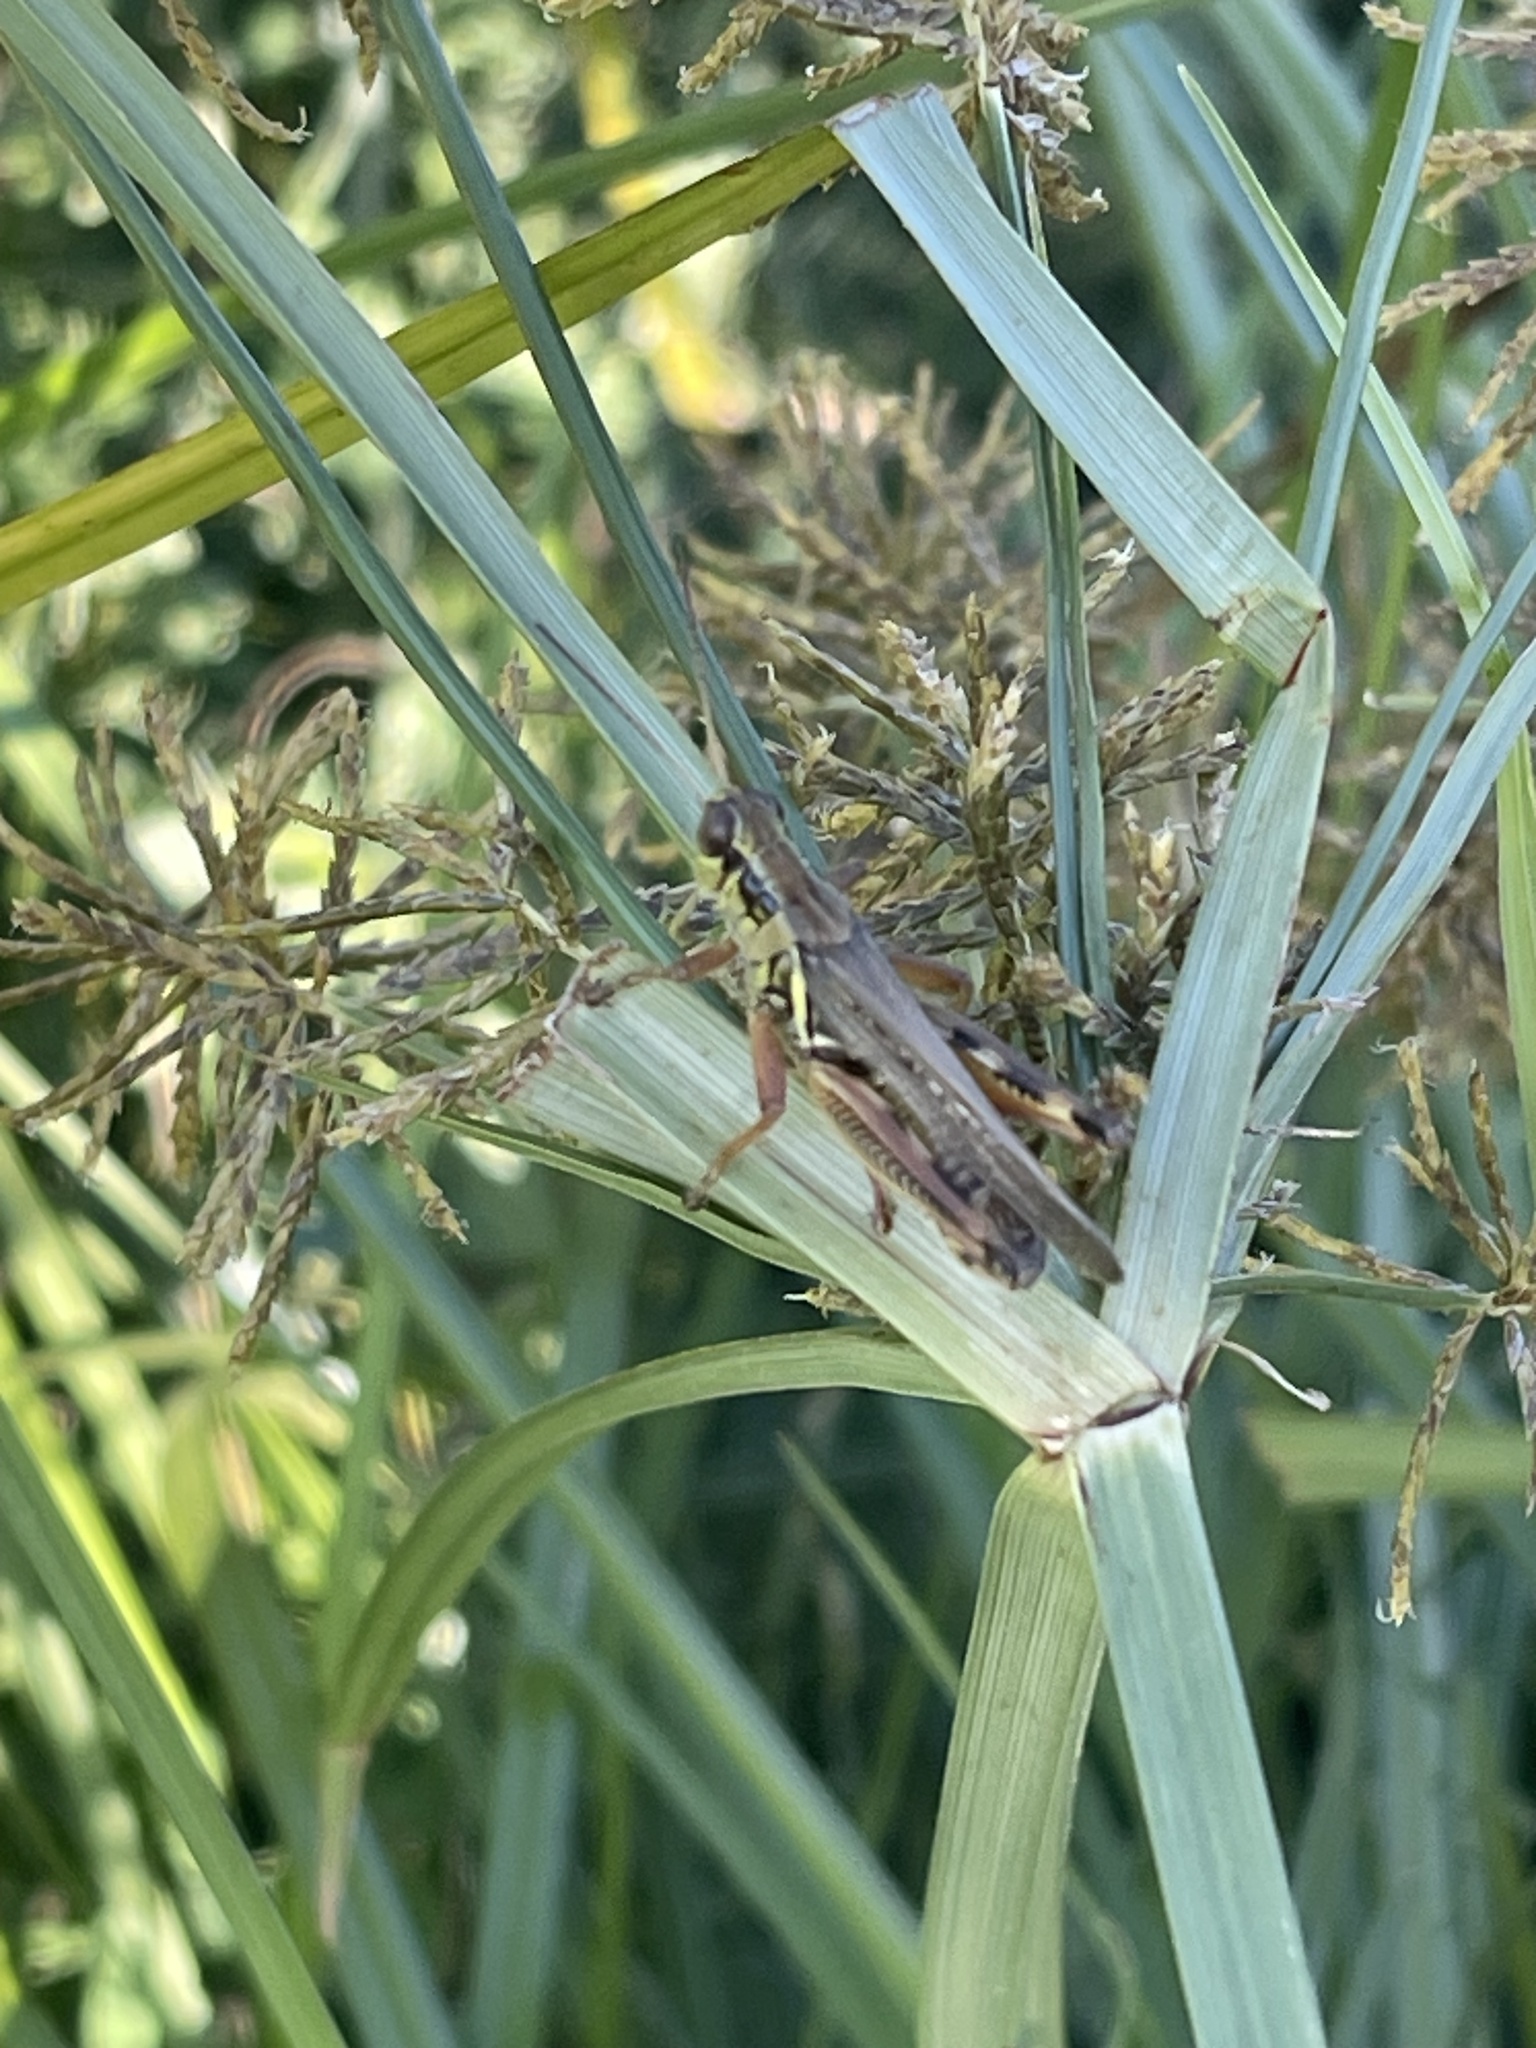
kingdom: Animalia
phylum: Arthropoda
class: Insecta
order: Orthoptera
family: Acrididae
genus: Melanoplus
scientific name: Melanoplus femurrubrum
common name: Red-legged grasshopper
